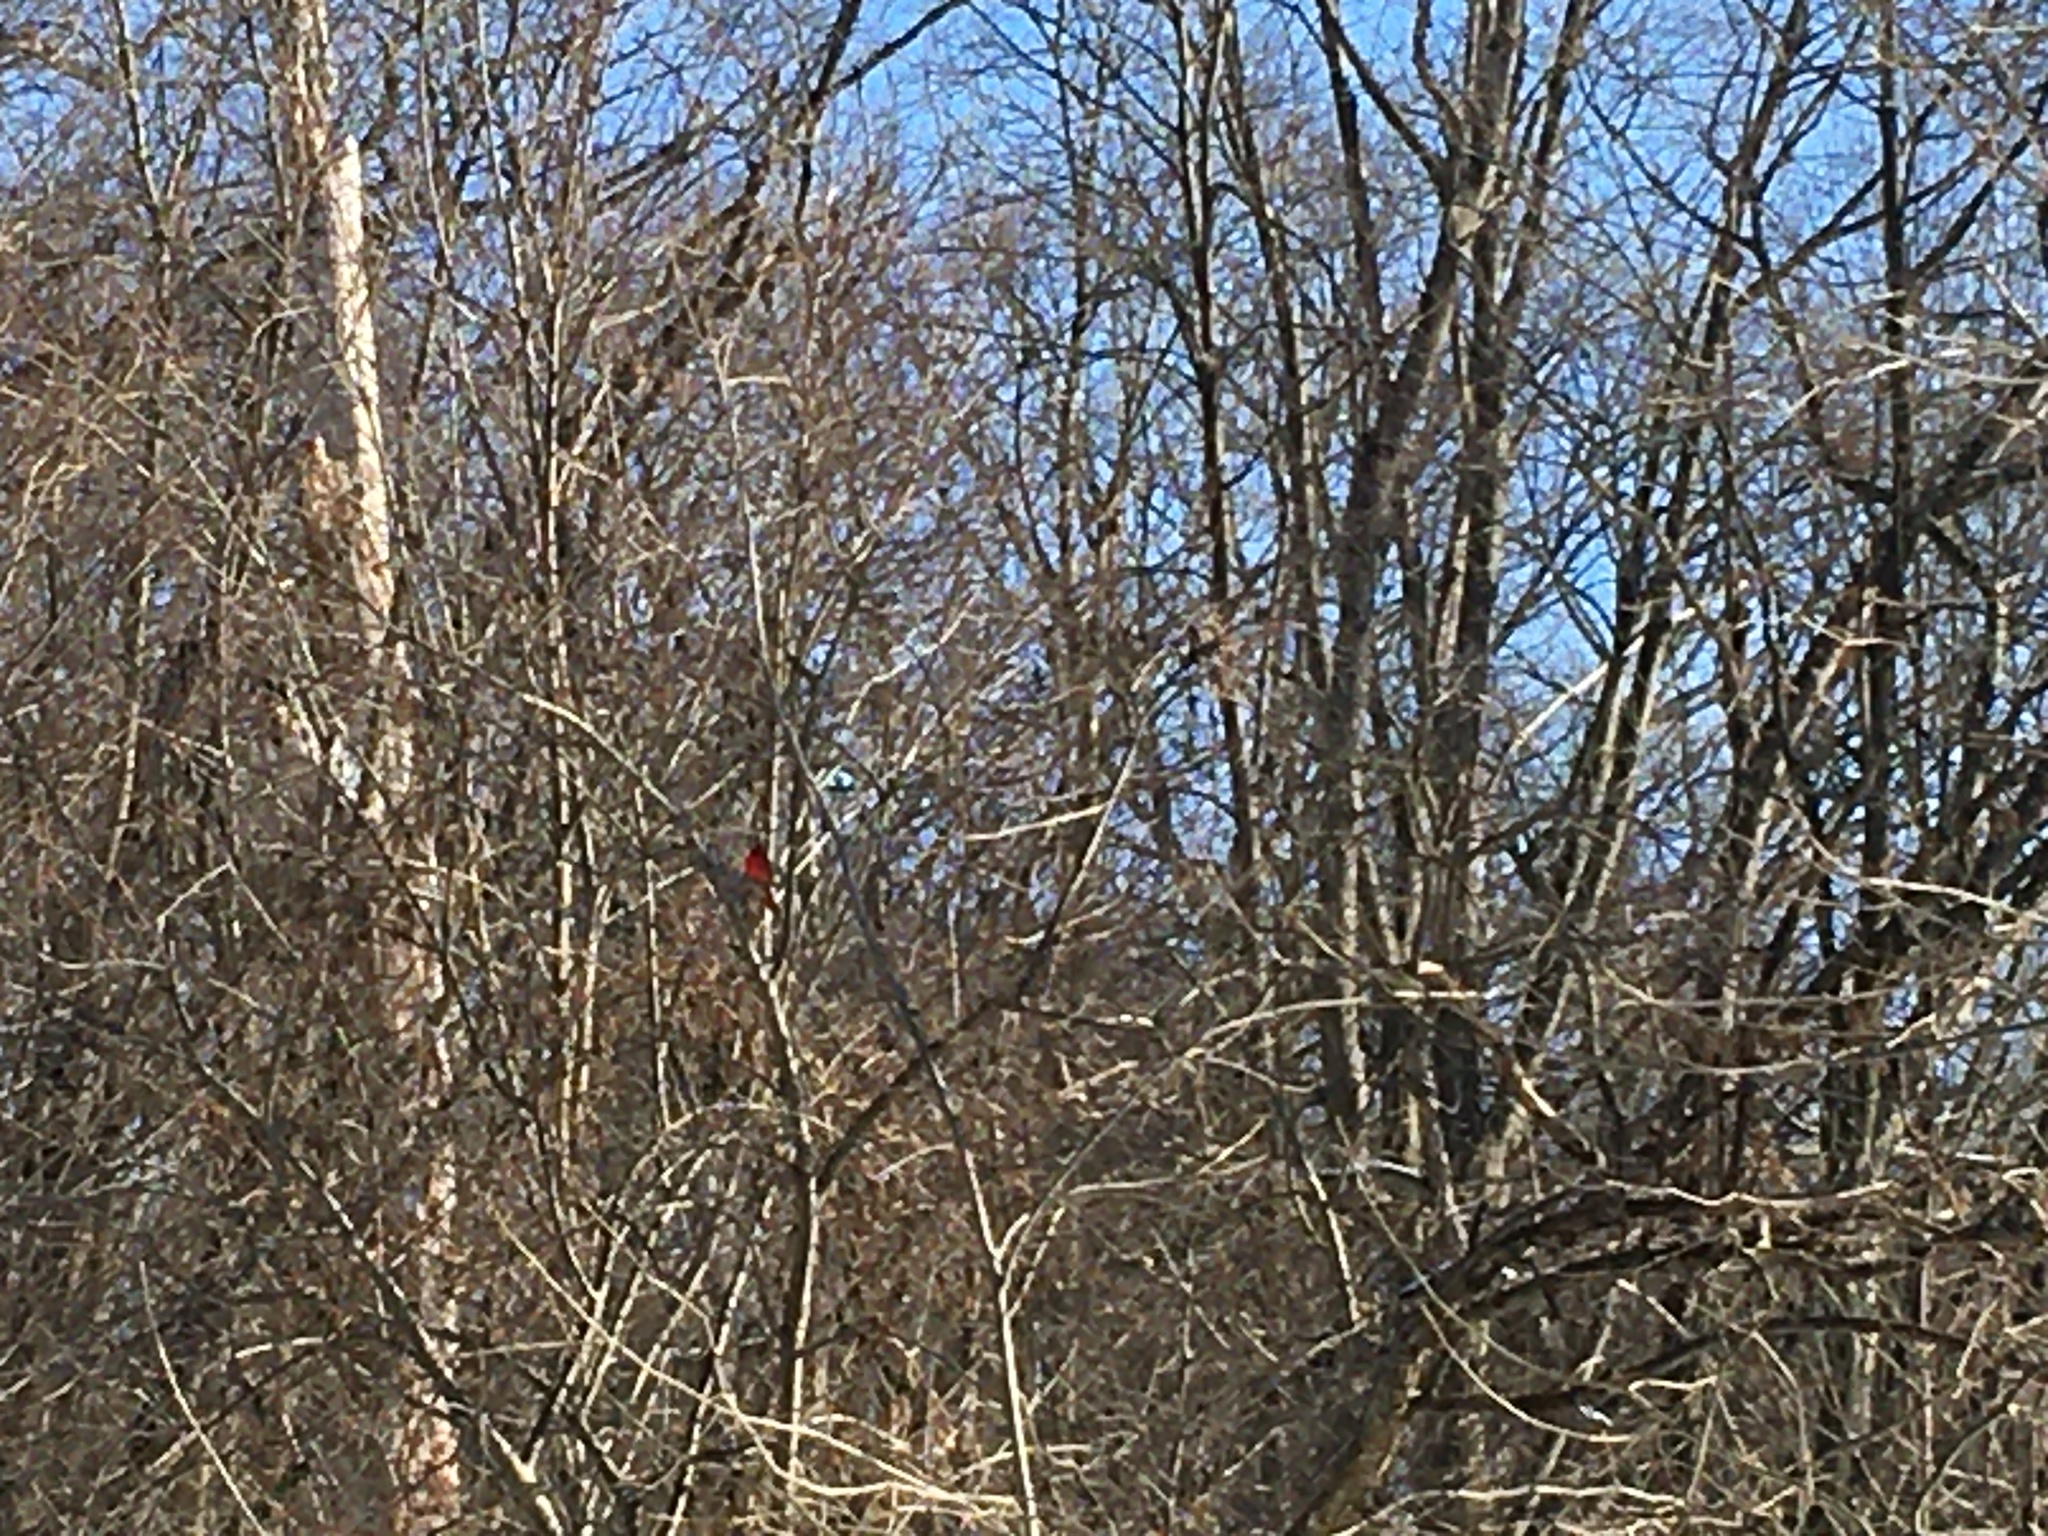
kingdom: Animalia
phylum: Chordata
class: Aves
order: Passeriformes
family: Cardinalidae
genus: Cardinalis
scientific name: Cardinalis cardinalis
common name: Northern cardinal
